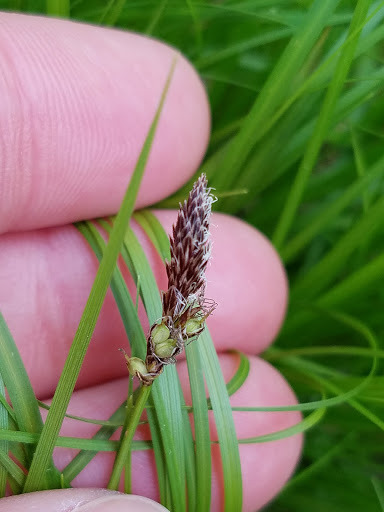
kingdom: Plantae
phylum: Tracheophyta
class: Liliopsida
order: Poales
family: Cyperaceae
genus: Carex
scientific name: Carex pensylvanica
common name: Common oak sedge
